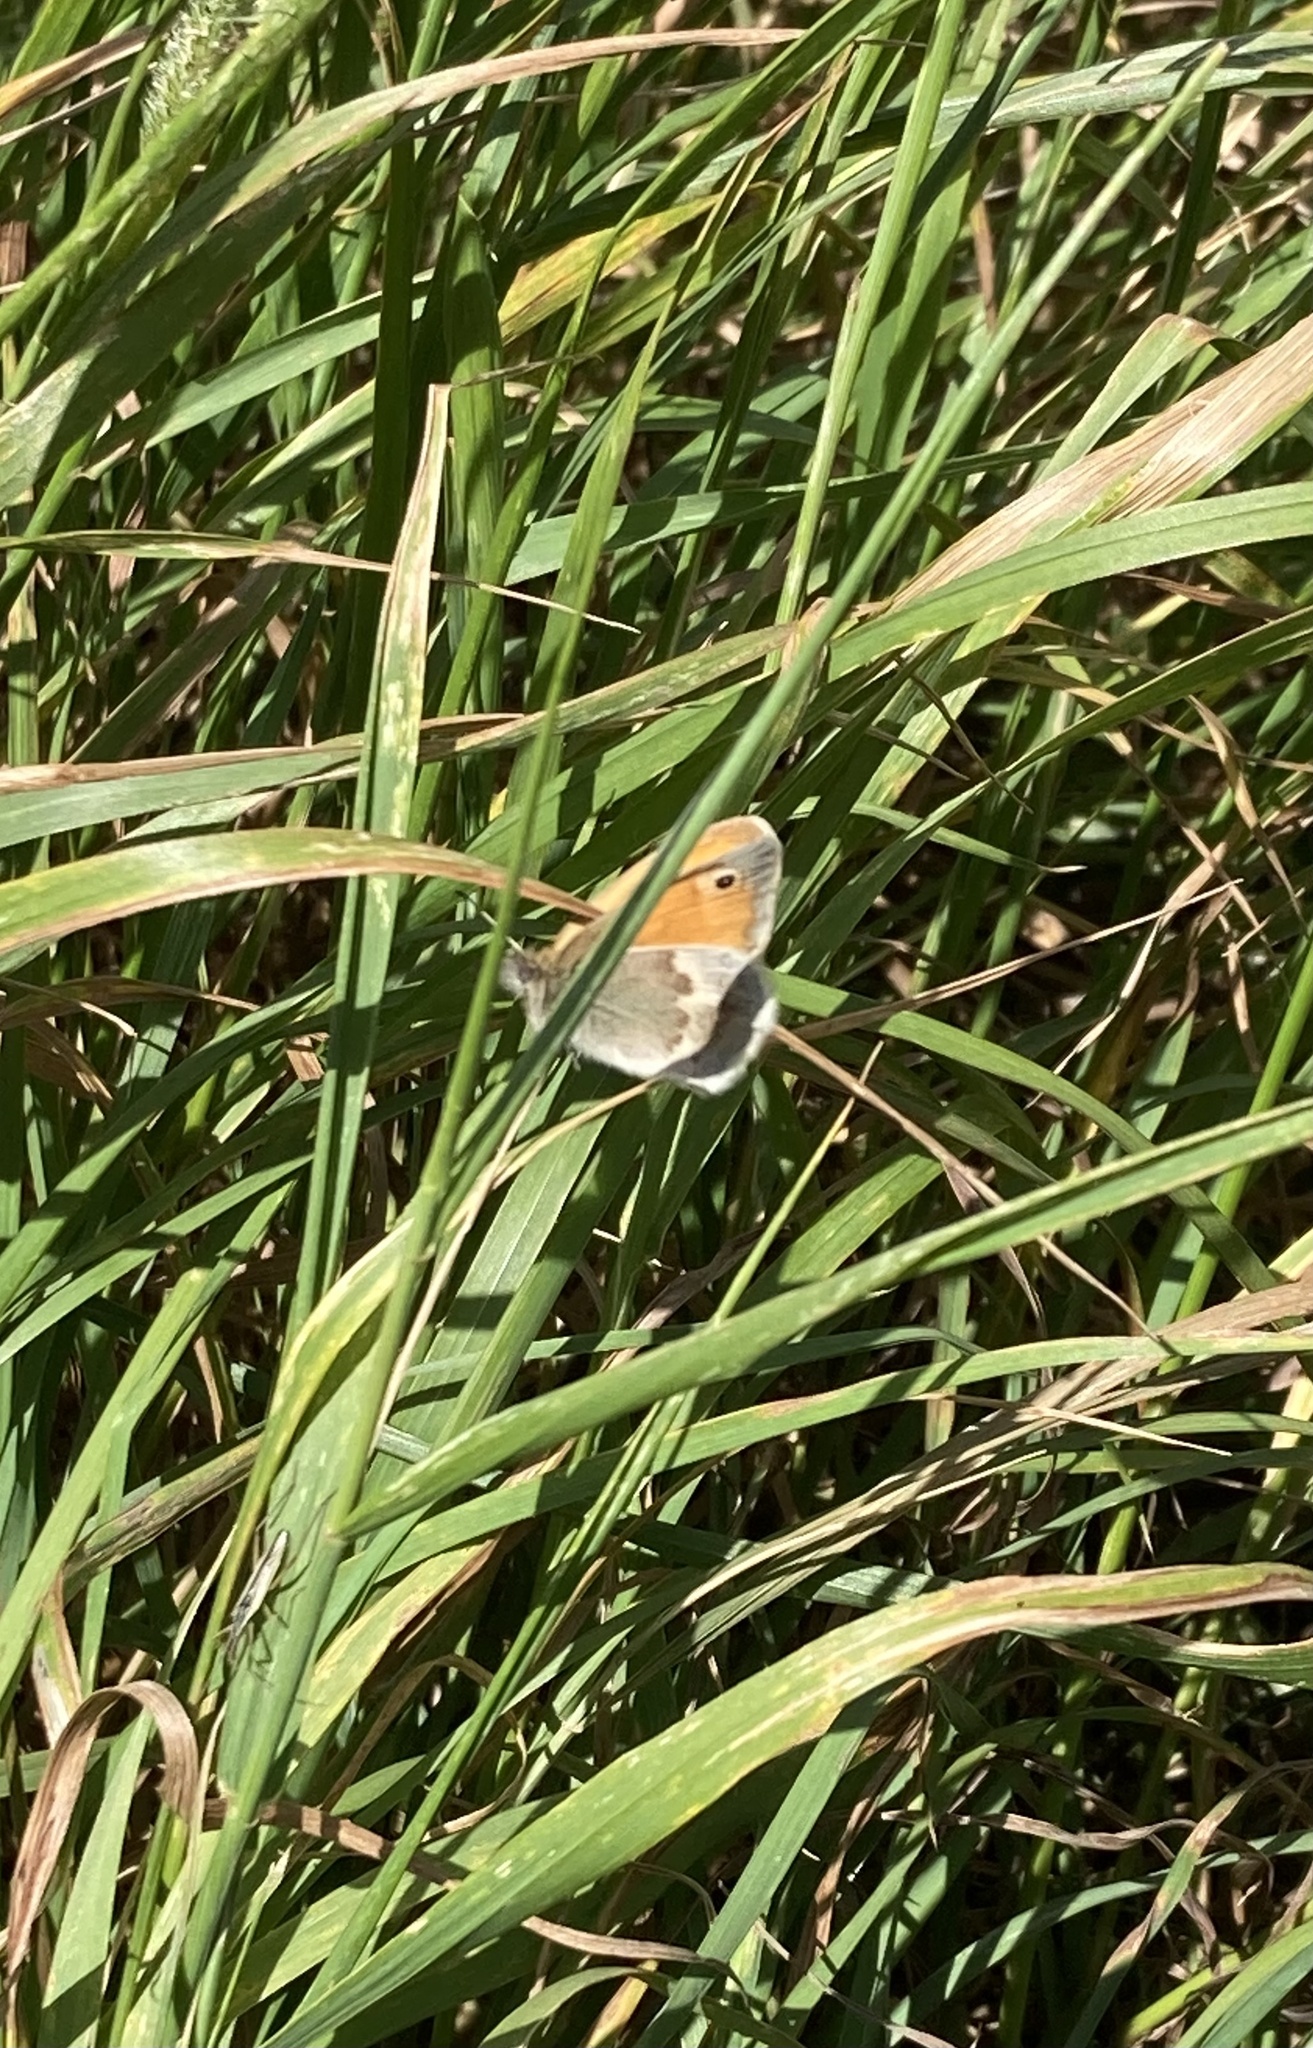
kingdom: Animalia
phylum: Arthropoda
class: Insecta
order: Lepidoptera
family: Nymphalidae
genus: Coenonympha
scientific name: Coenonympha pamphilus
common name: Small heath
